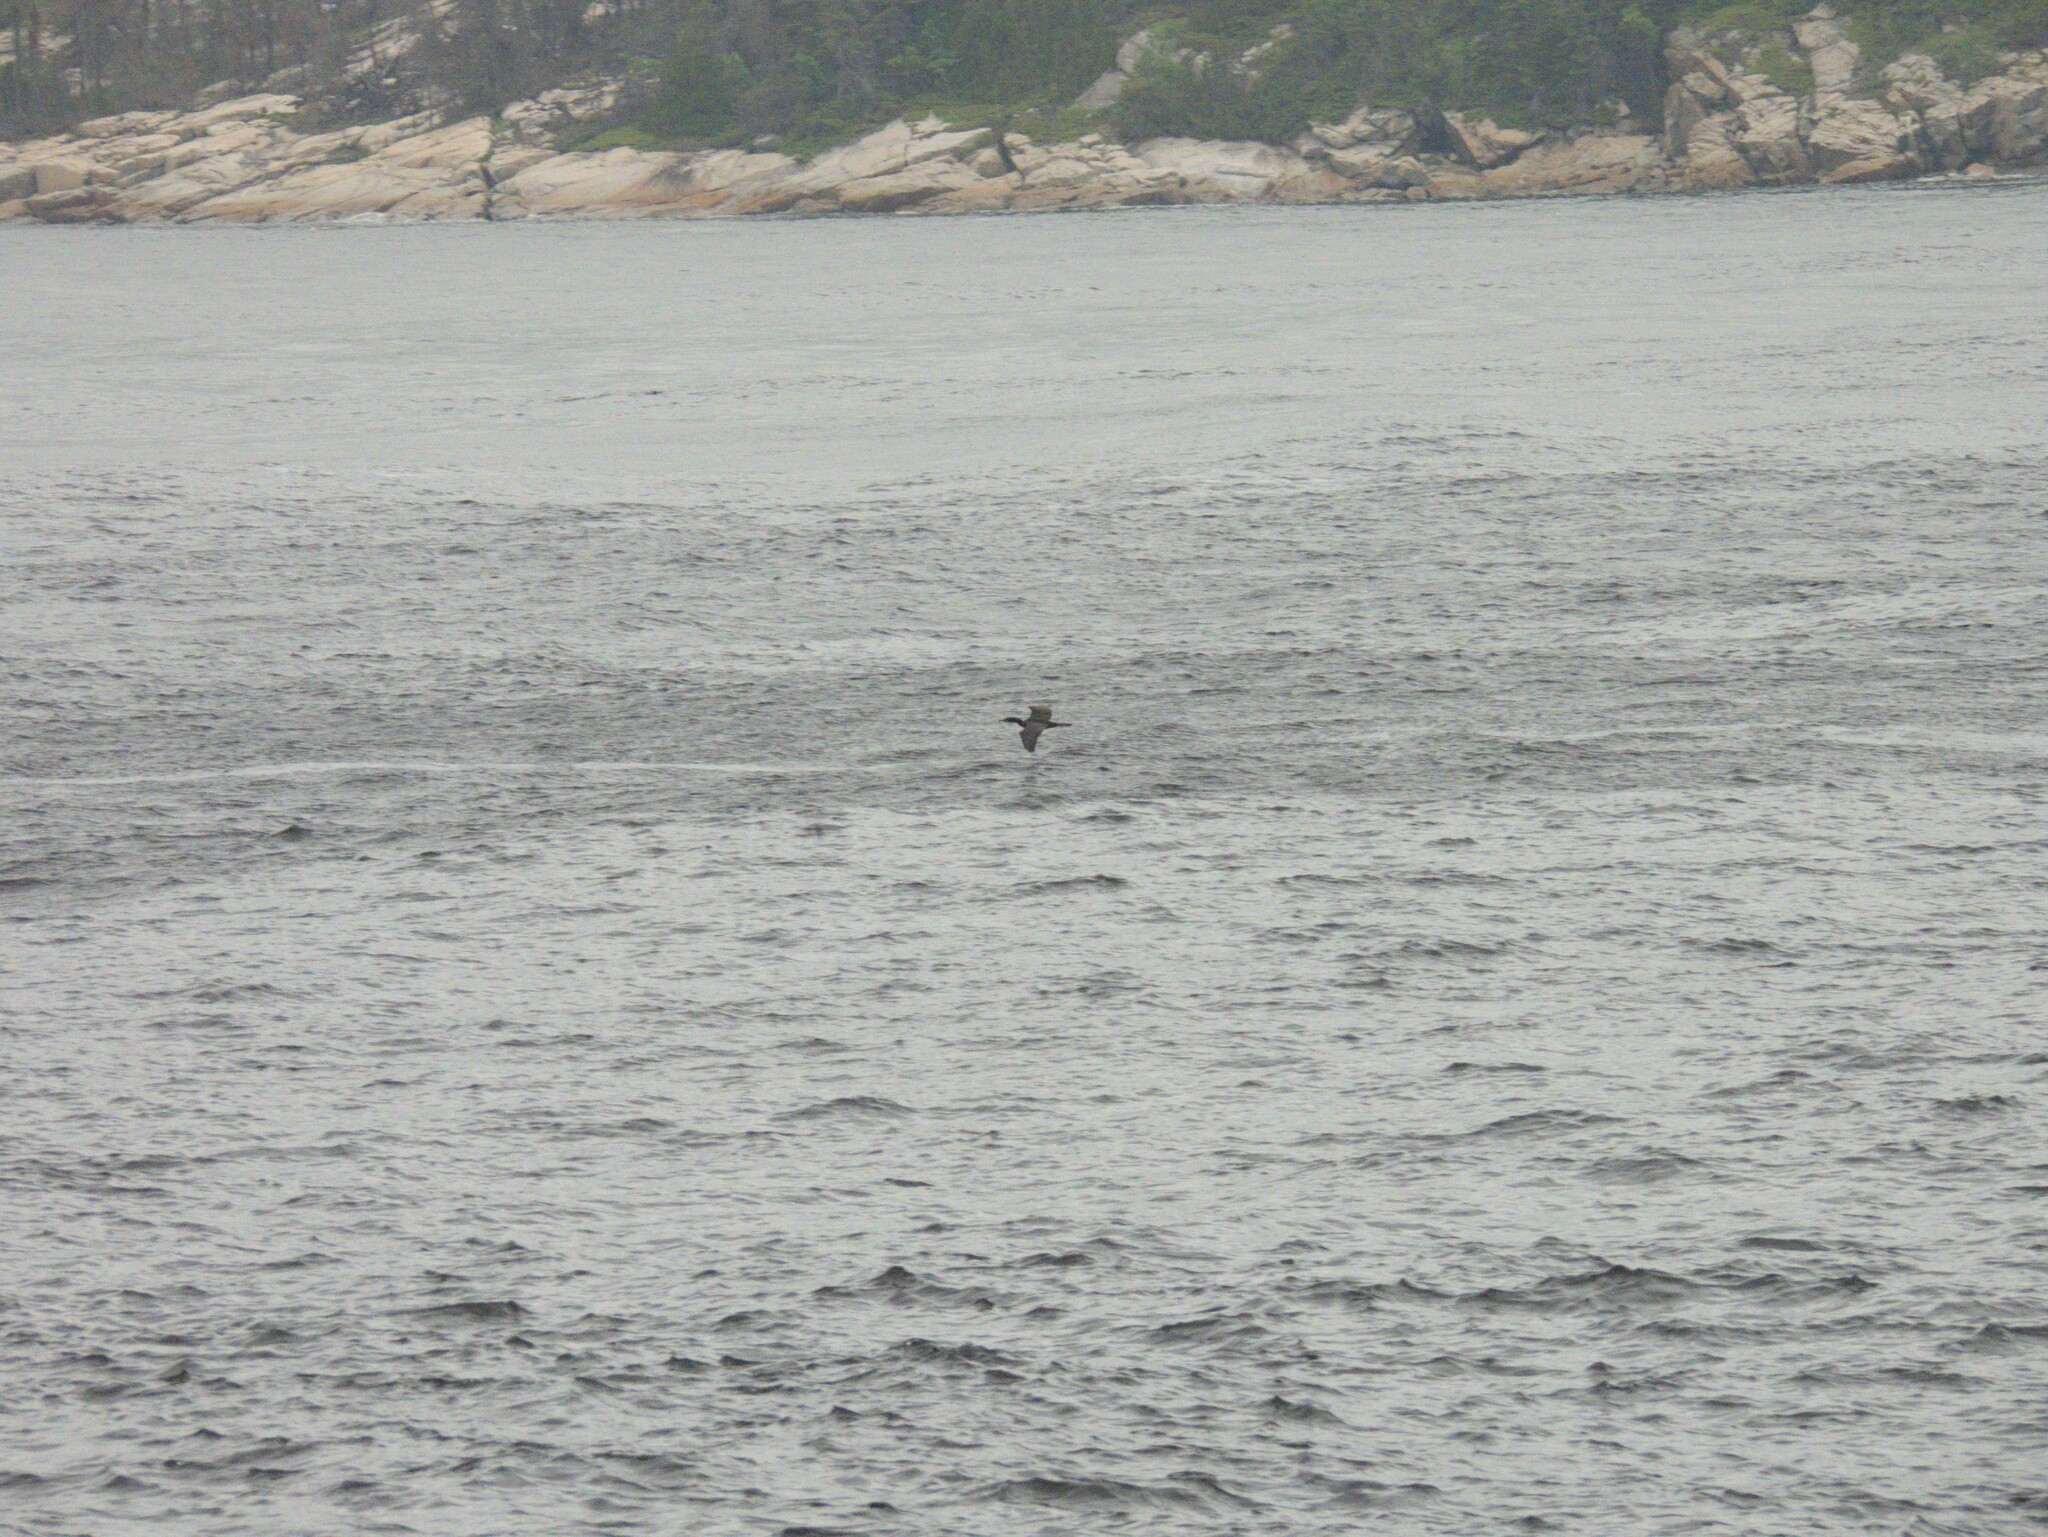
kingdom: Animalia
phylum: Chordata
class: Aves
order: Suliformes
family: Phalacrocoracidae
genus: Phalacrocorax
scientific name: Phalacrocorax auritus
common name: Double-crested cormorant
